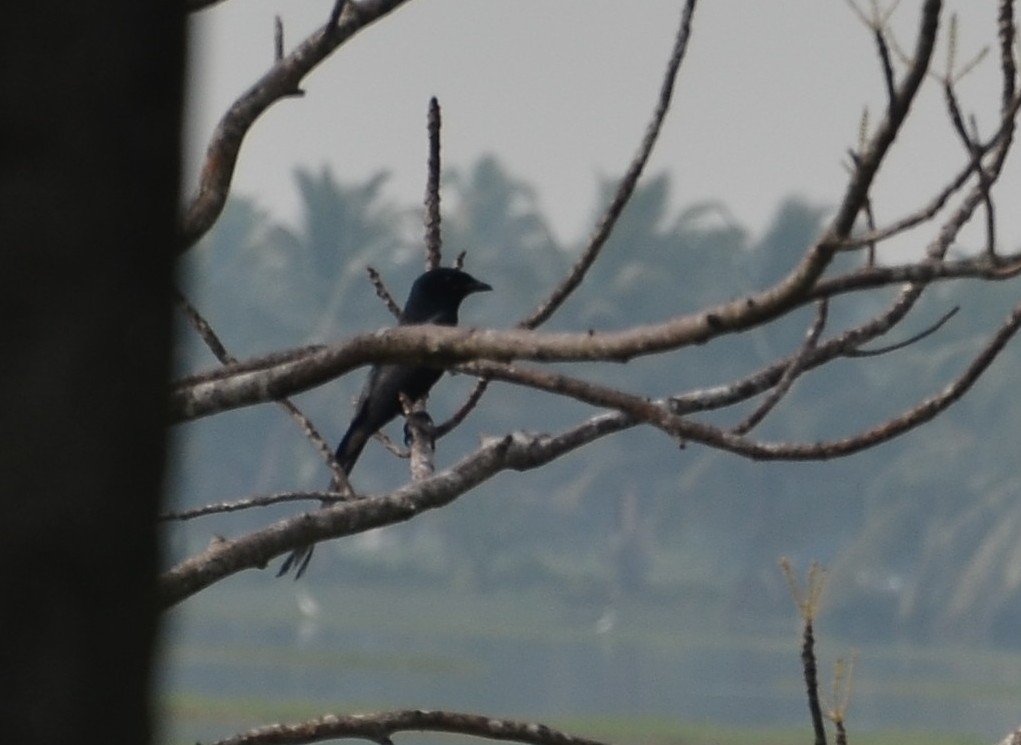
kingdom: Animalia
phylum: Chordata
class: Aves
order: Passeriformes
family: Dicruridae
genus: Dicrurus
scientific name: Dicrurus macrocercus
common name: Black drongo
